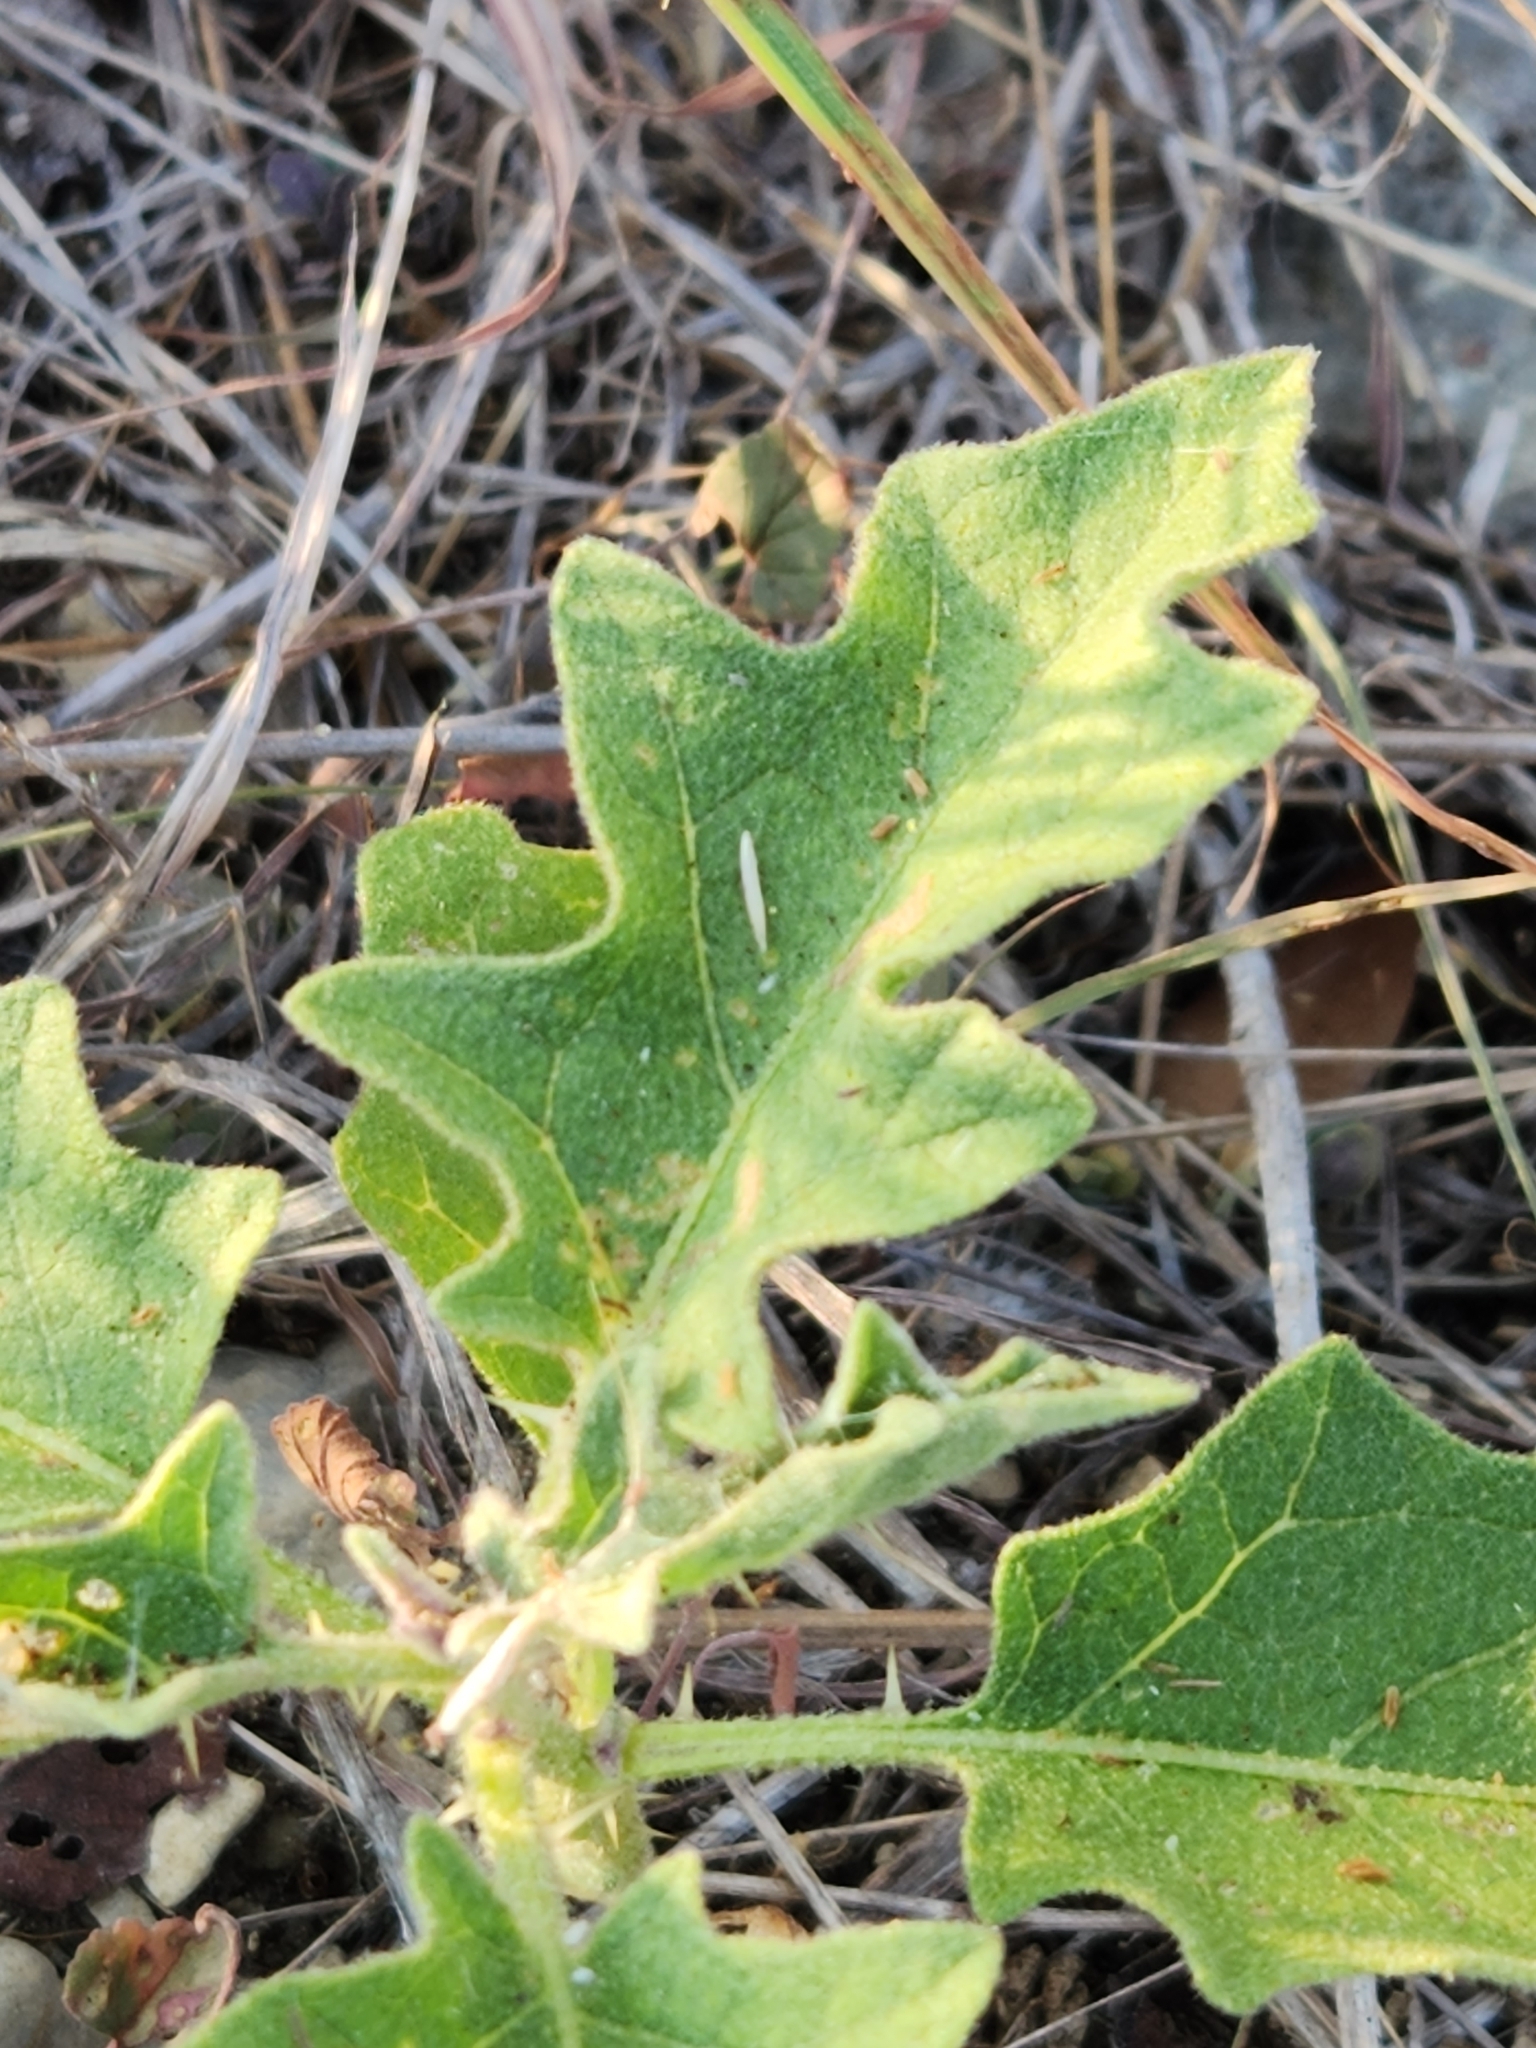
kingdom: Plantae
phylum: Tracheophyta
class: Magnoliopsida
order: Solanales
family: Solanaceae
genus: Solanum
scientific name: Solanum dimidiatum
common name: Carolina horse-nettle
